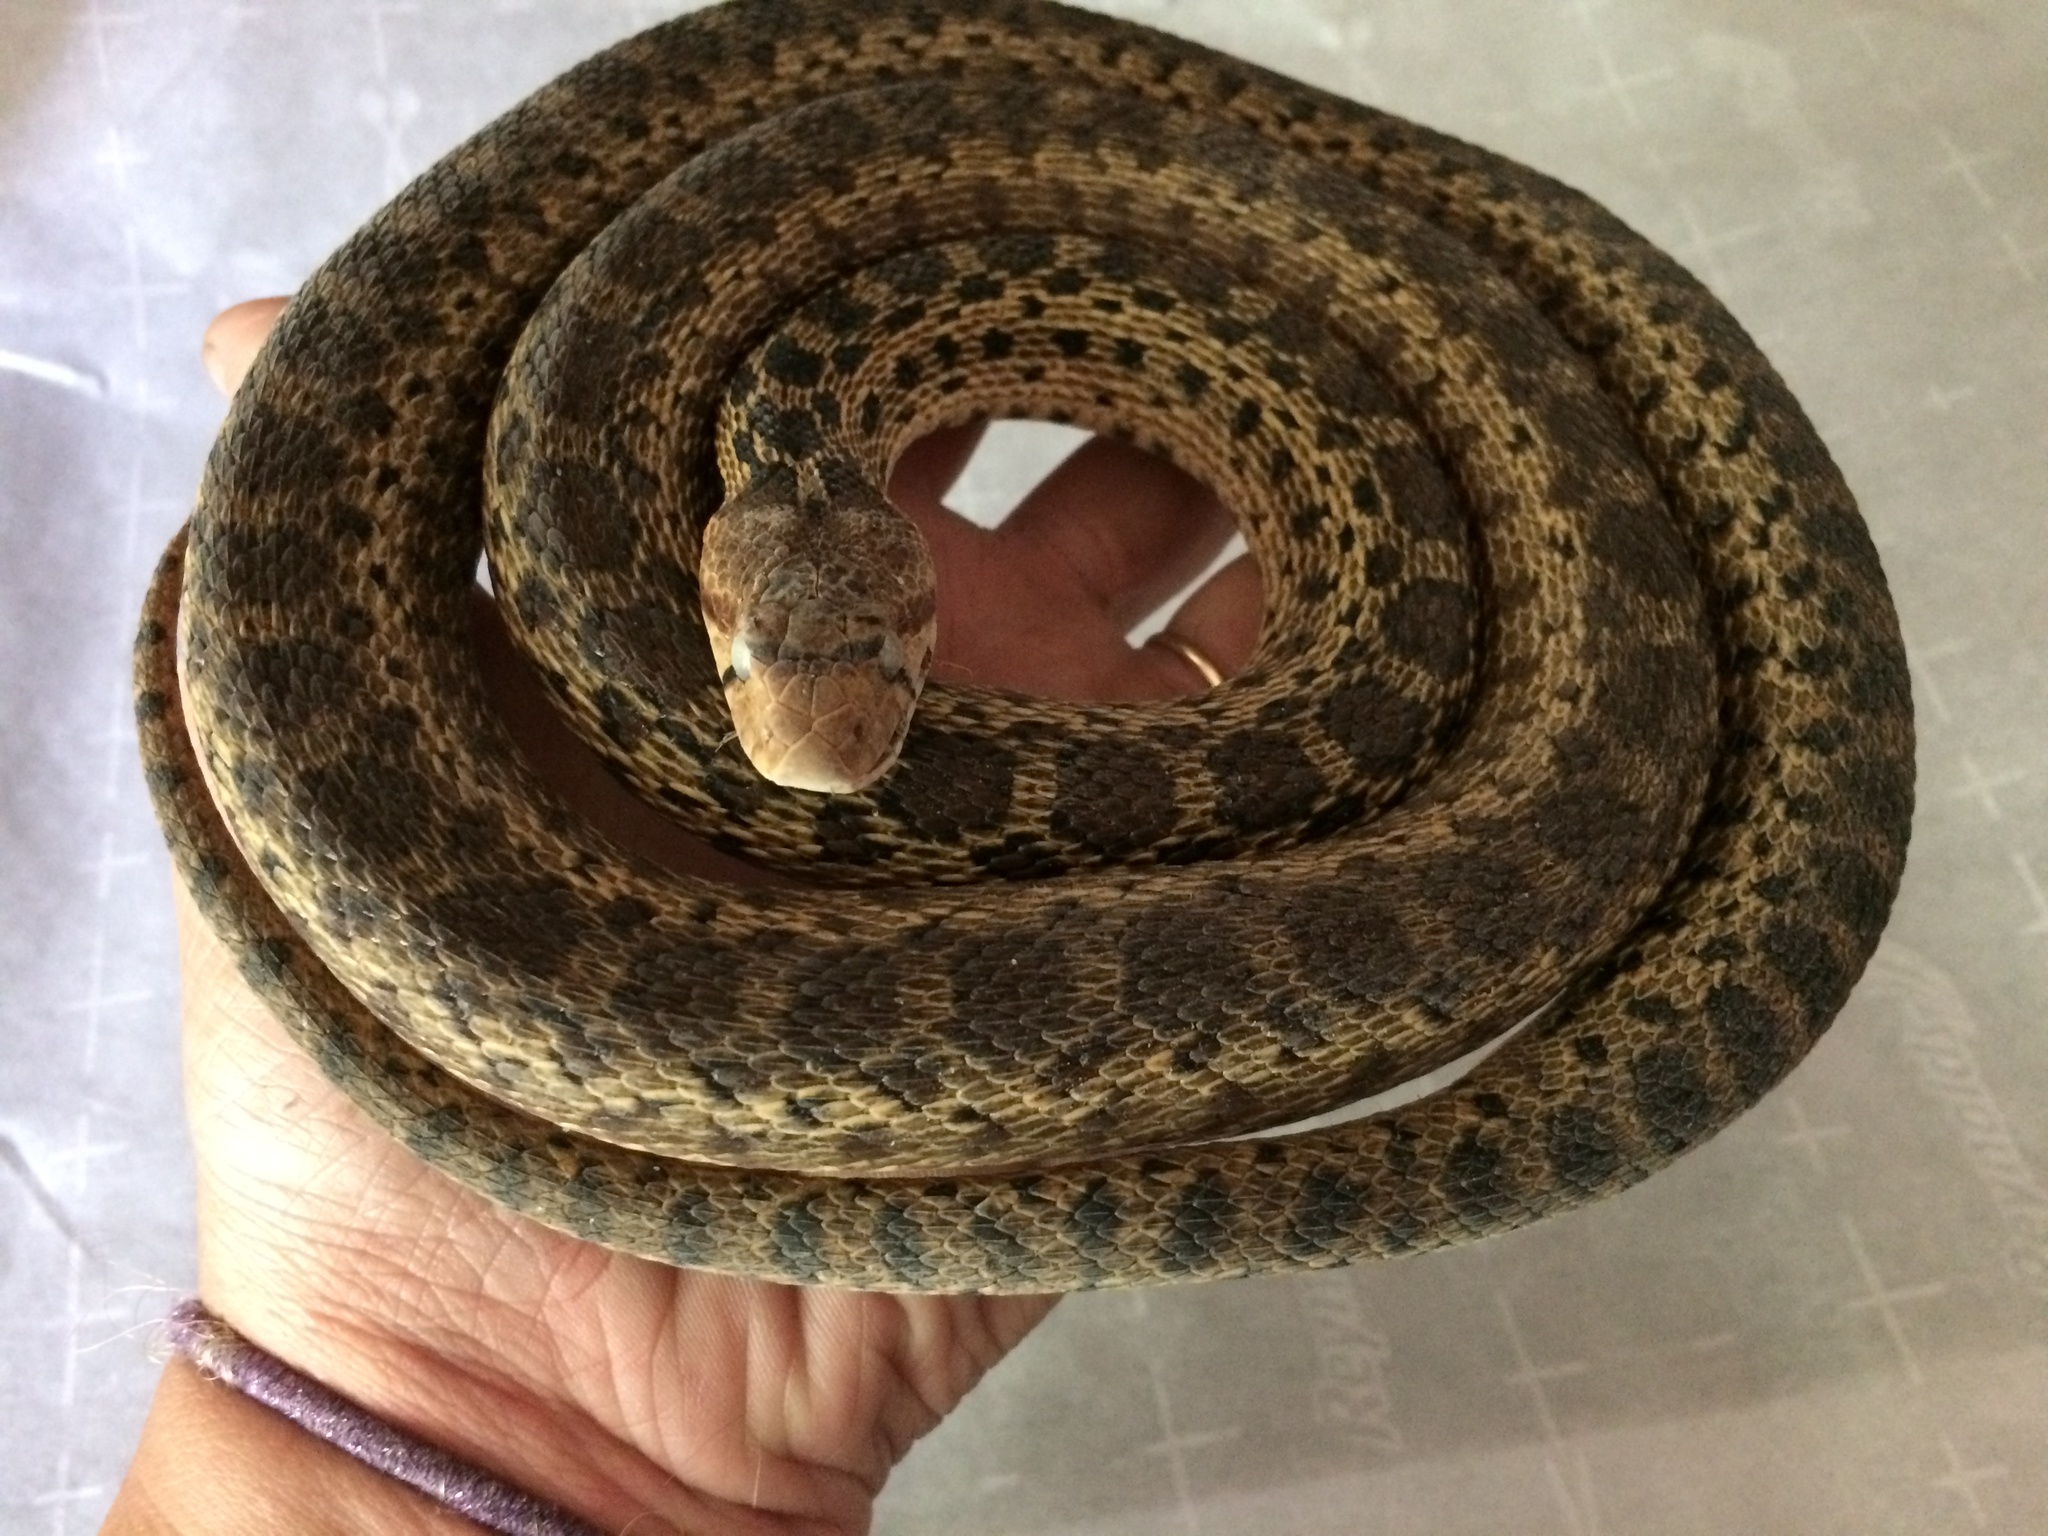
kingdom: Animalia
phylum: Chordata
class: Squamata
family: Colubridae
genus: Pituophis
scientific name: Pituophis catenifer
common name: Gopher snake
